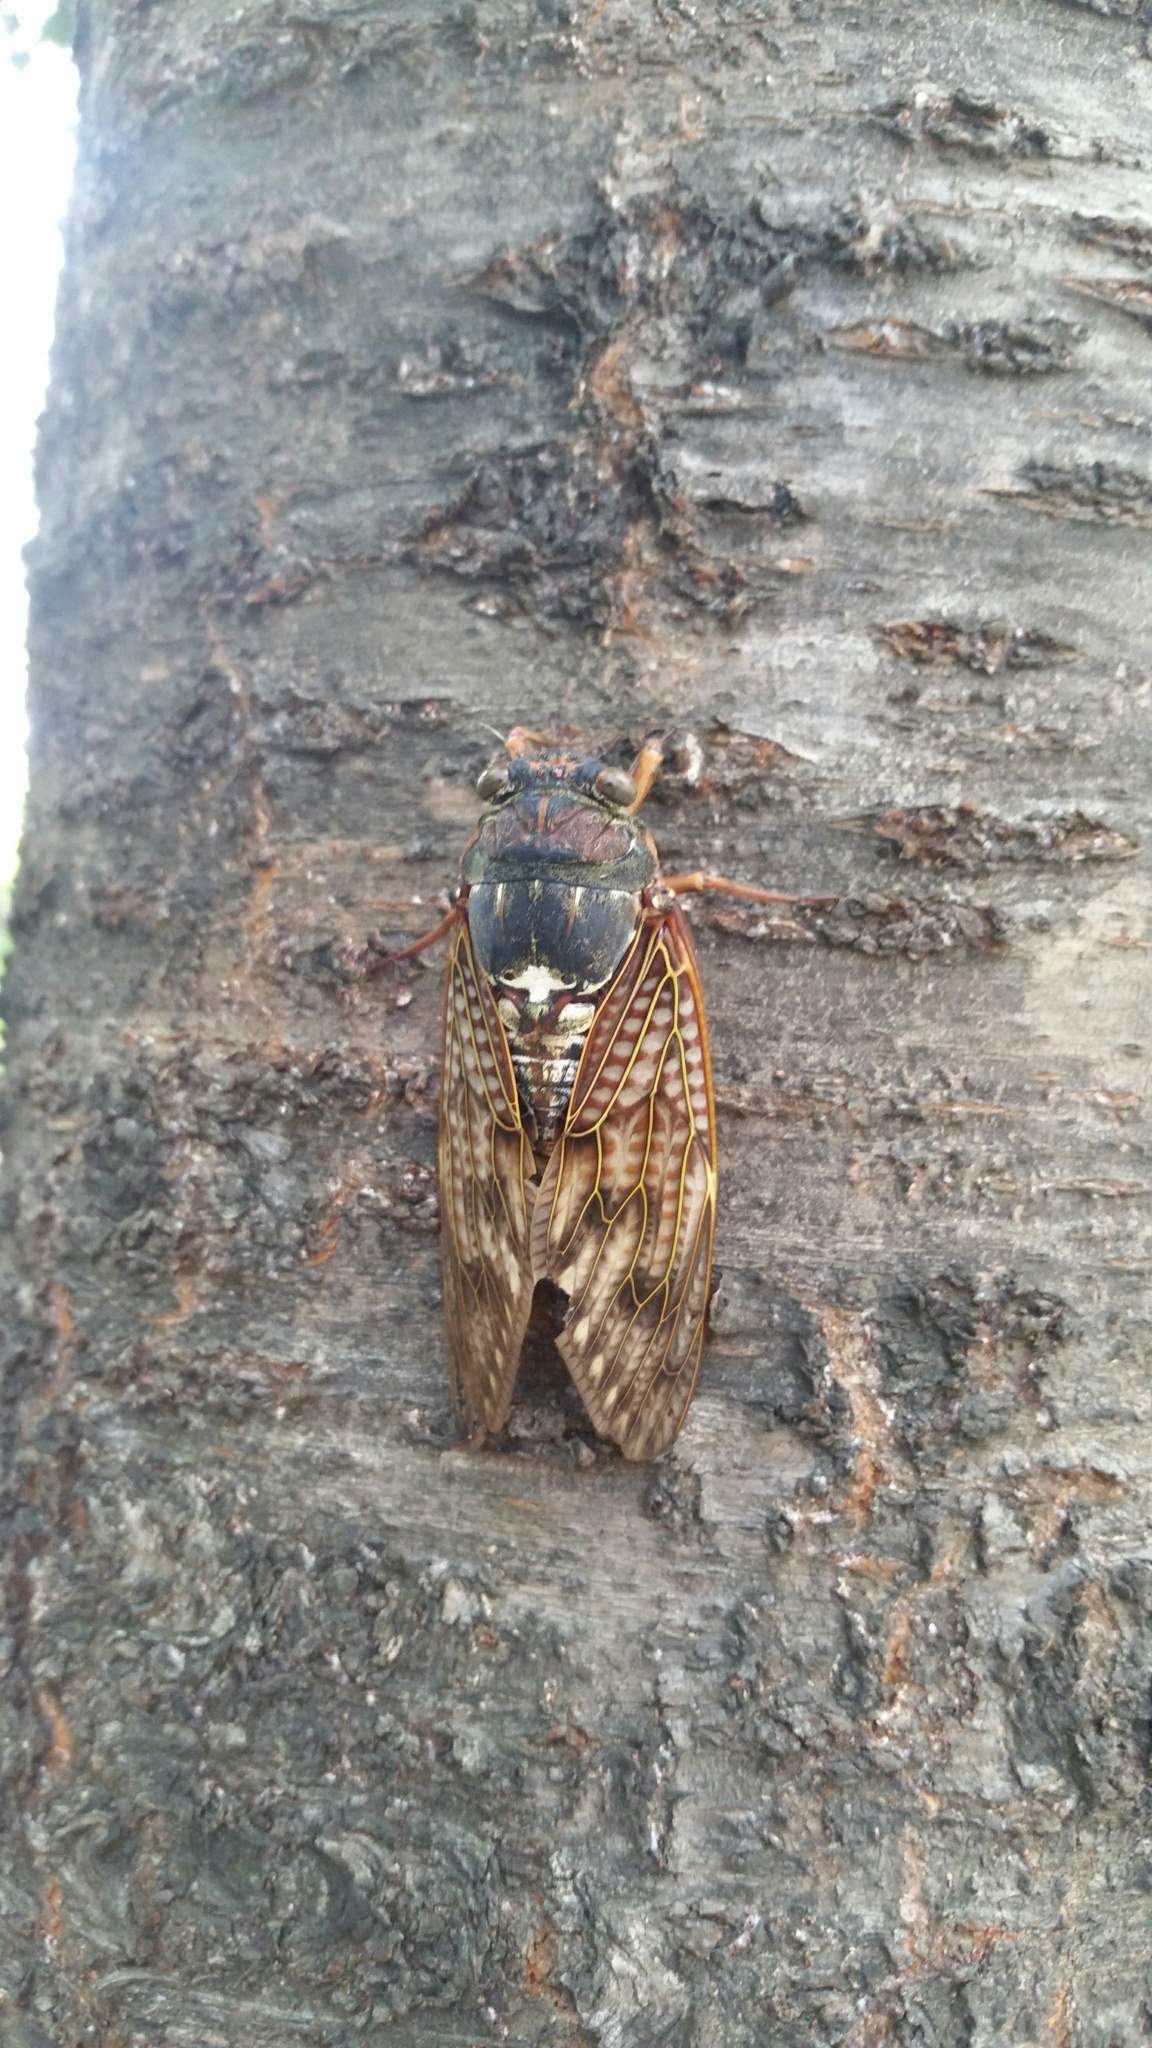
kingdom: Animalia
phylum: Arthropoda
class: Insecta
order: Hemiptera
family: Cicadidae
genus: Graptopsaltria
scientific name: Graptopsaltria nigrofuscata
